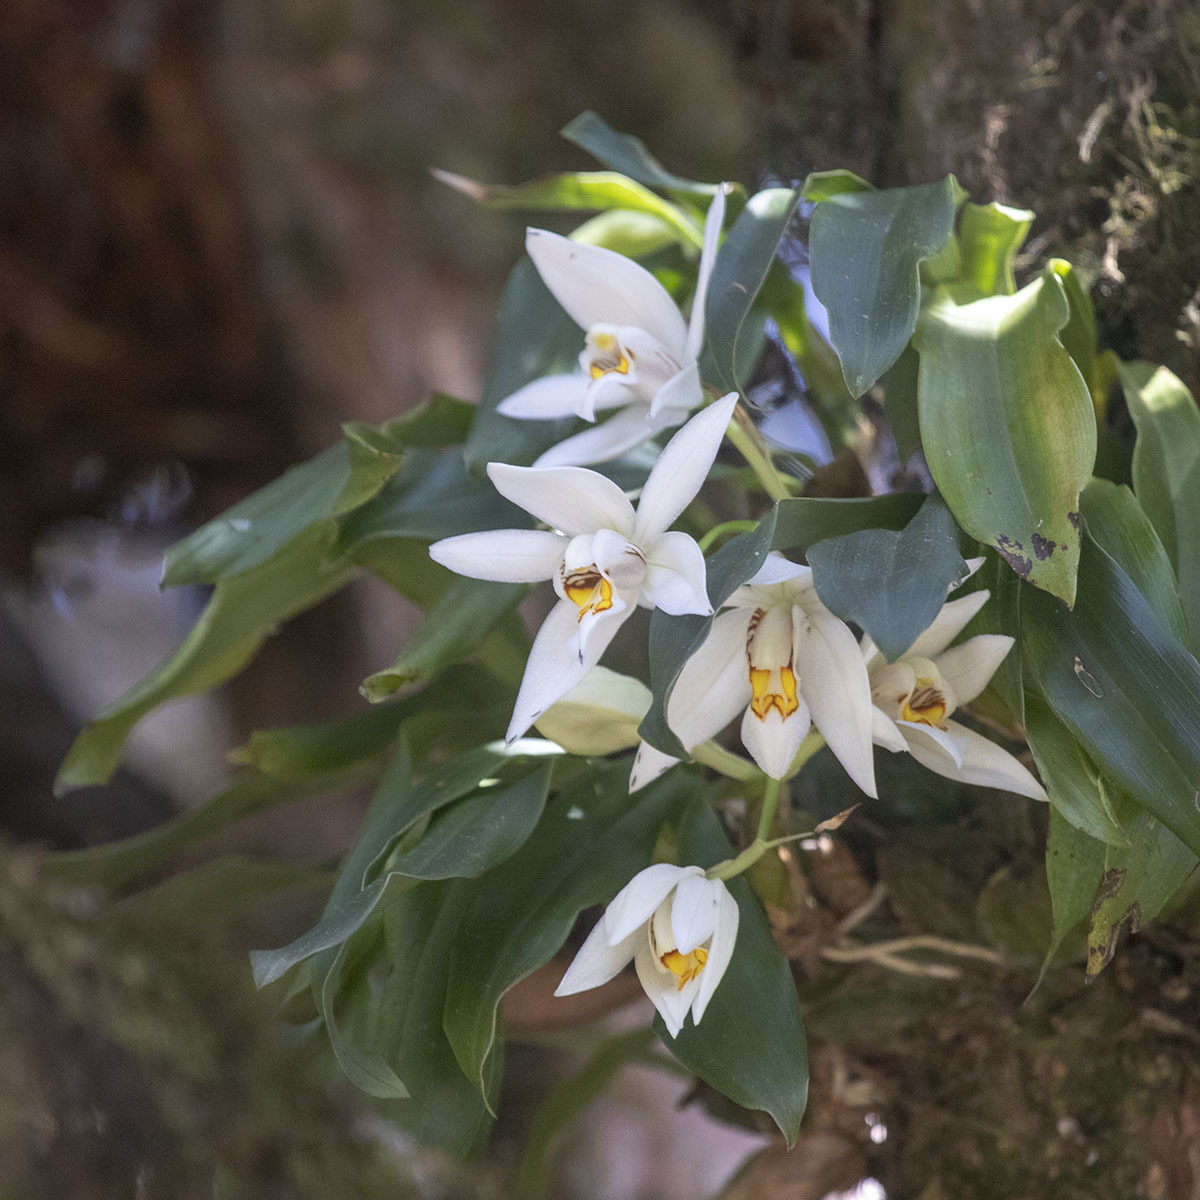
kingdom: Plantae
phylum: Tracheophyta
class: Liliopsida
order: Asparagales
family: Orchidaceae
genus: Coelogyne
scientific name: Coelogyne corymbosa
